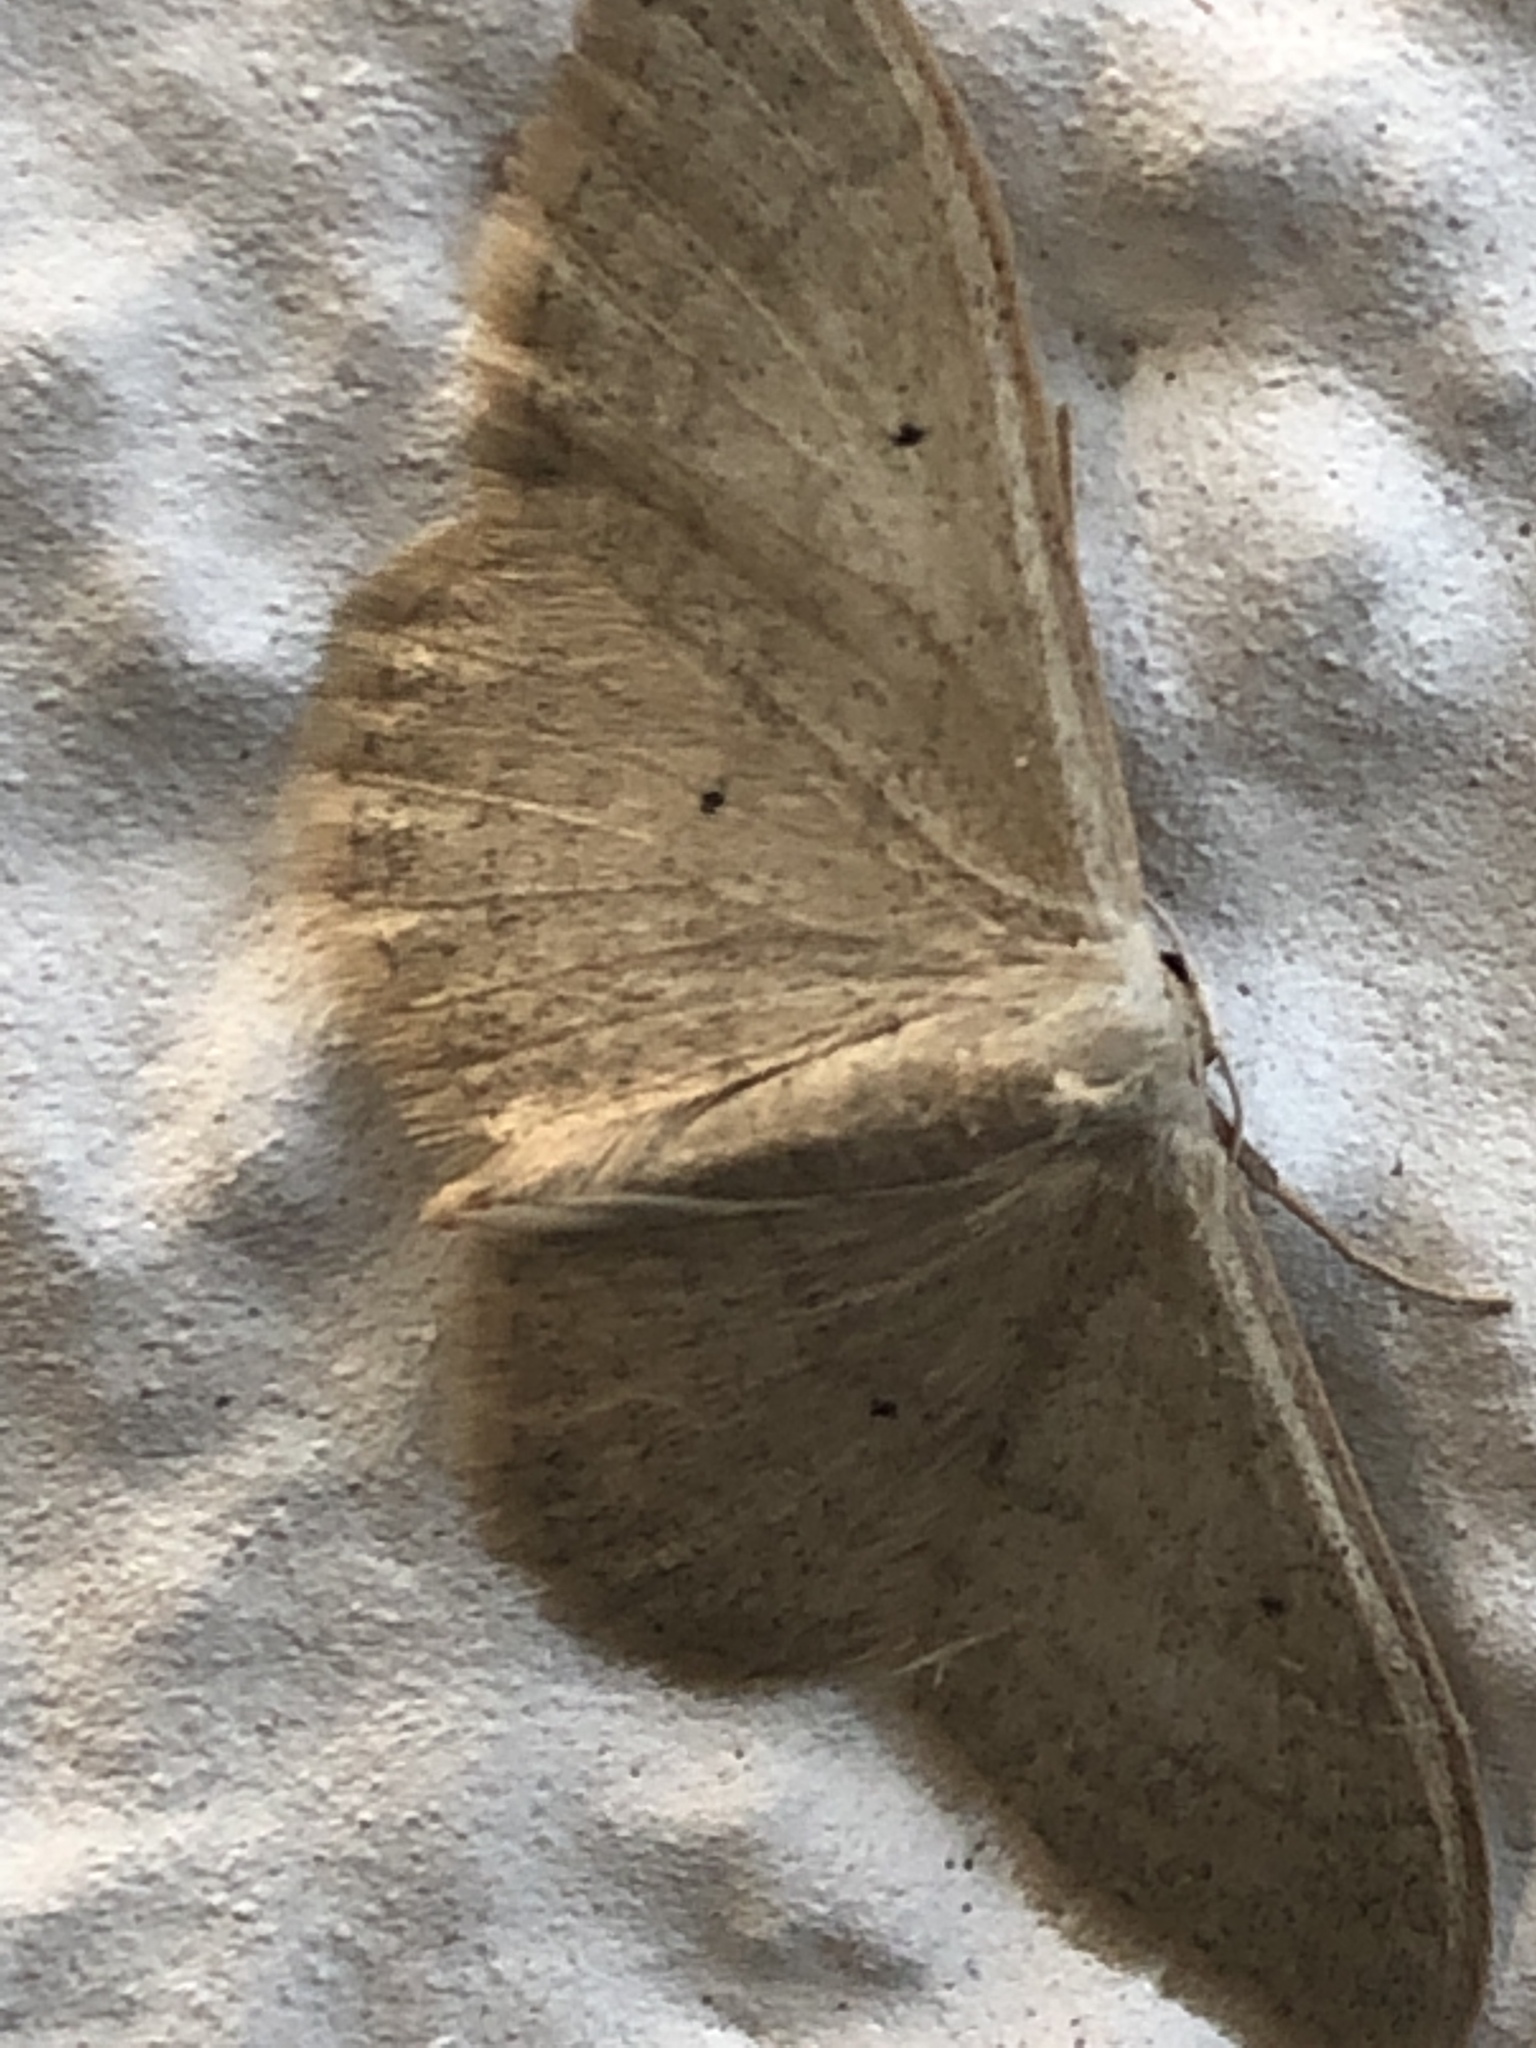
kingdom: Animalia
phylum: Arthropoda
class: Insecta
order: Lepidoptera
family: Geometridae
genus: Idaea
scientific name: Idaea straminata
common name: Plain wave
